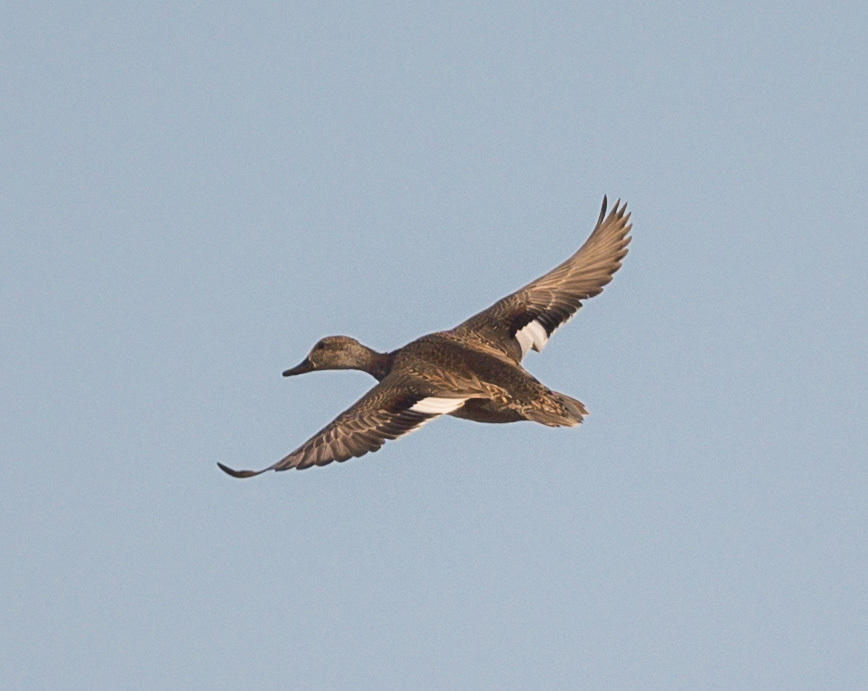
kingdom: Animalia
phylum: Chordata
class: Aves
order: Anseriformes
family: Anatidae
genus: Mareca
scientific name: Mareca strepera
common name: Gadwall
